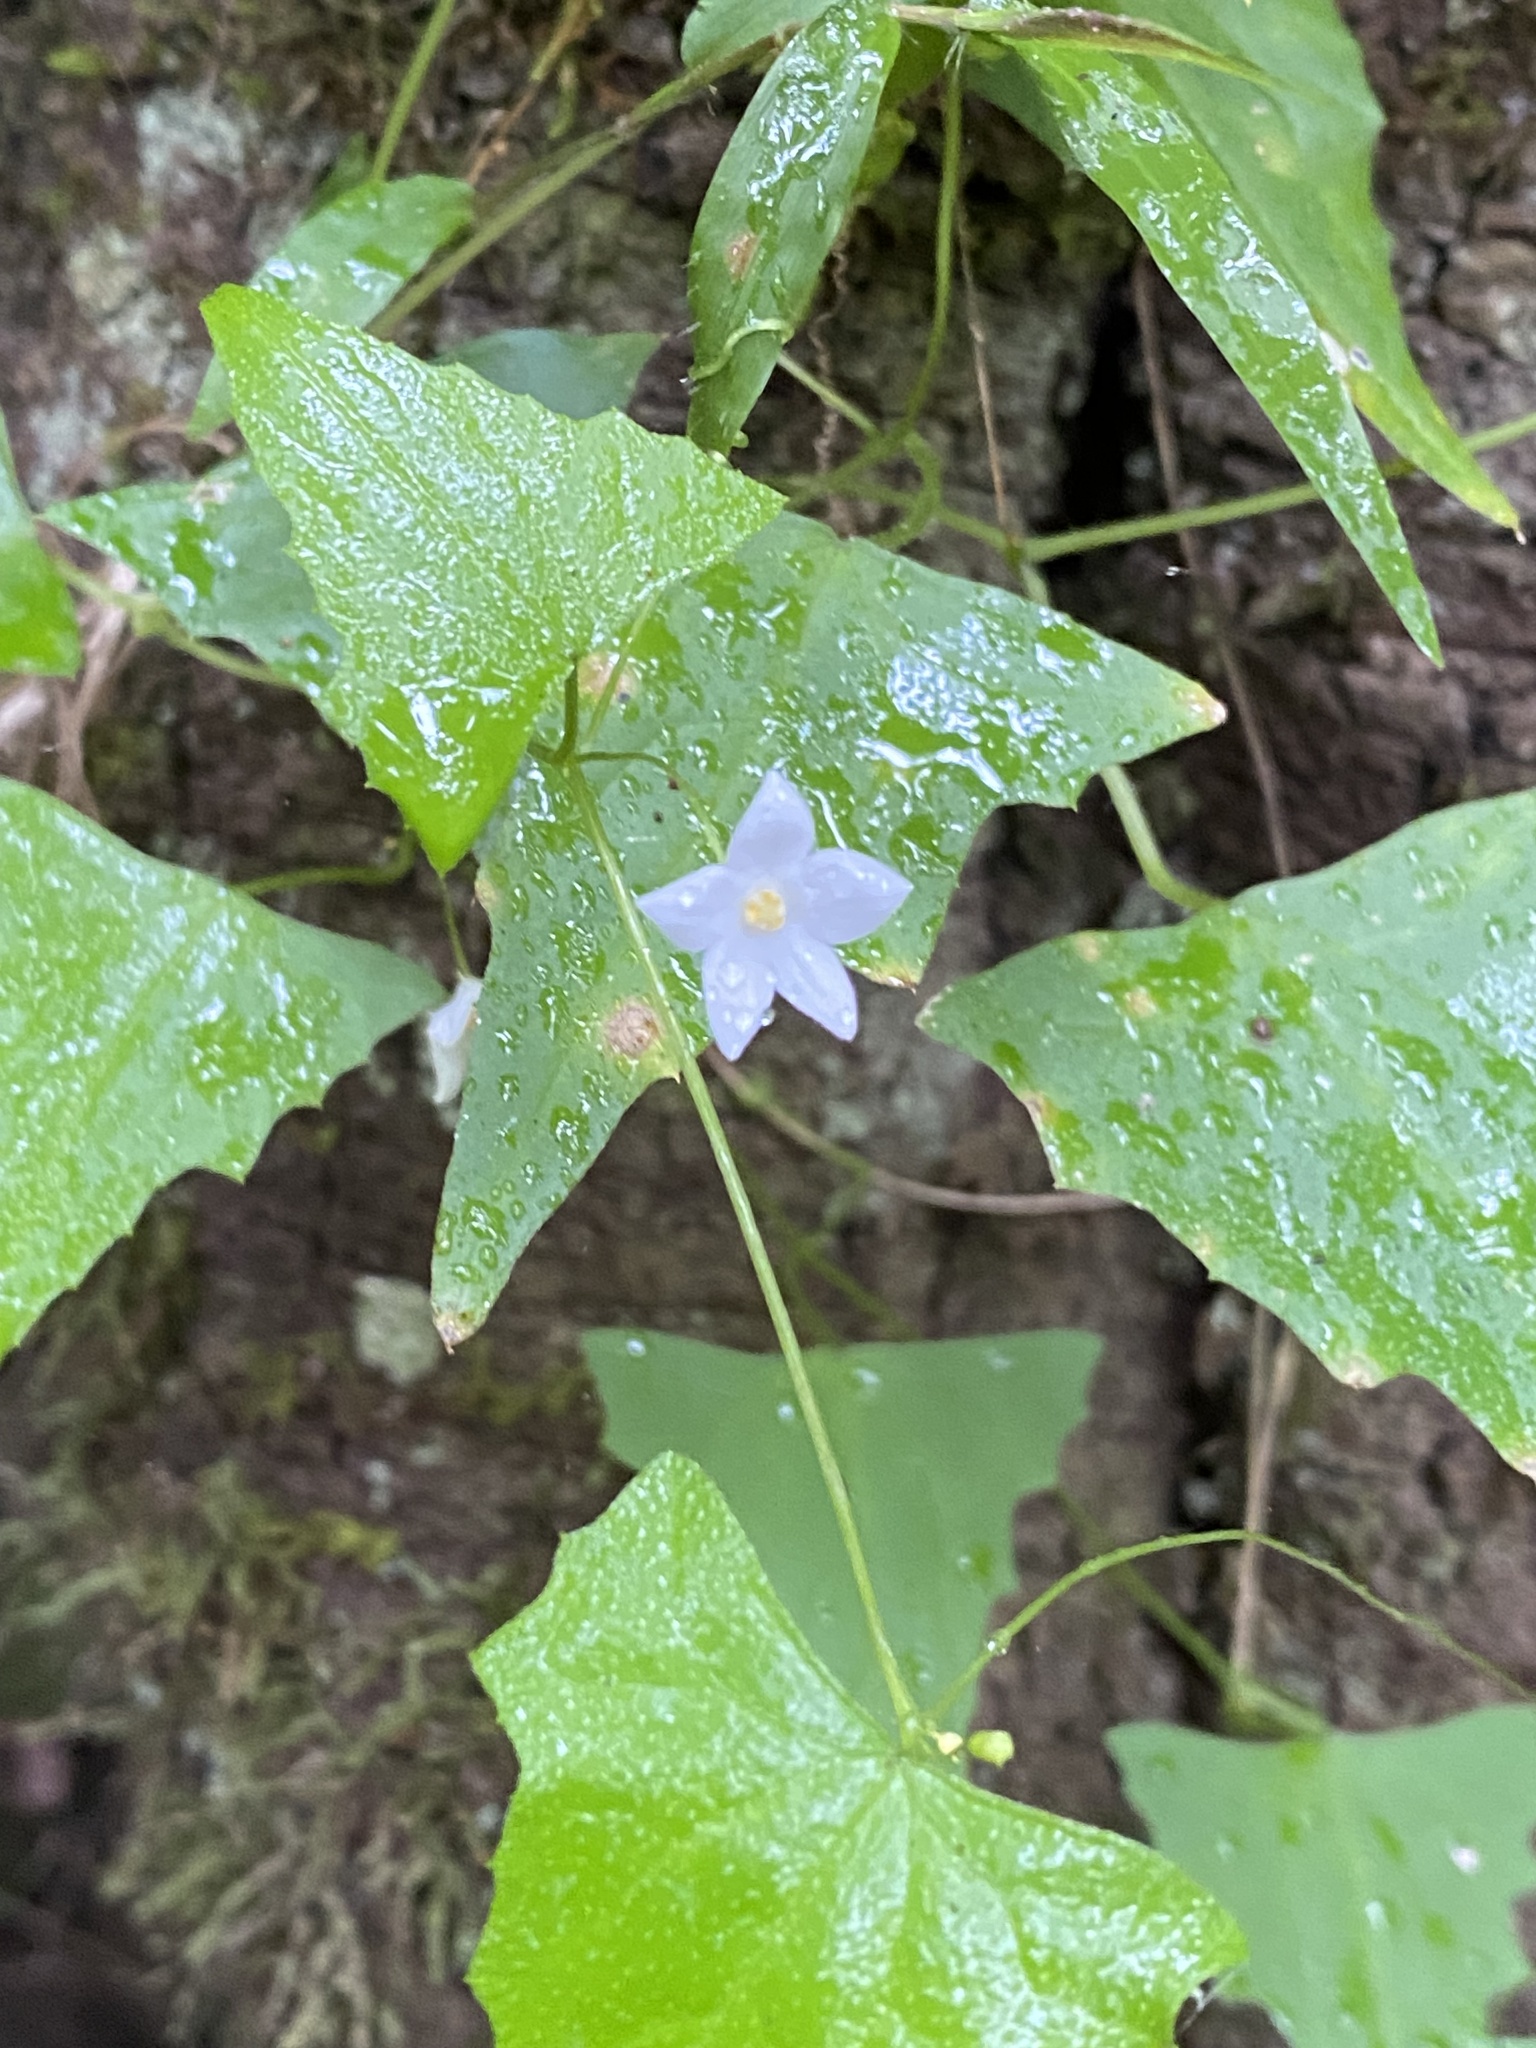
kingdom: Plantae
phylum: Tracheophyta
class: Magnoliopsida
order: Cucurbitales
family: Cucurbitaceae
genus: Zehneria
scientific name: Zehneria cunninghamii
